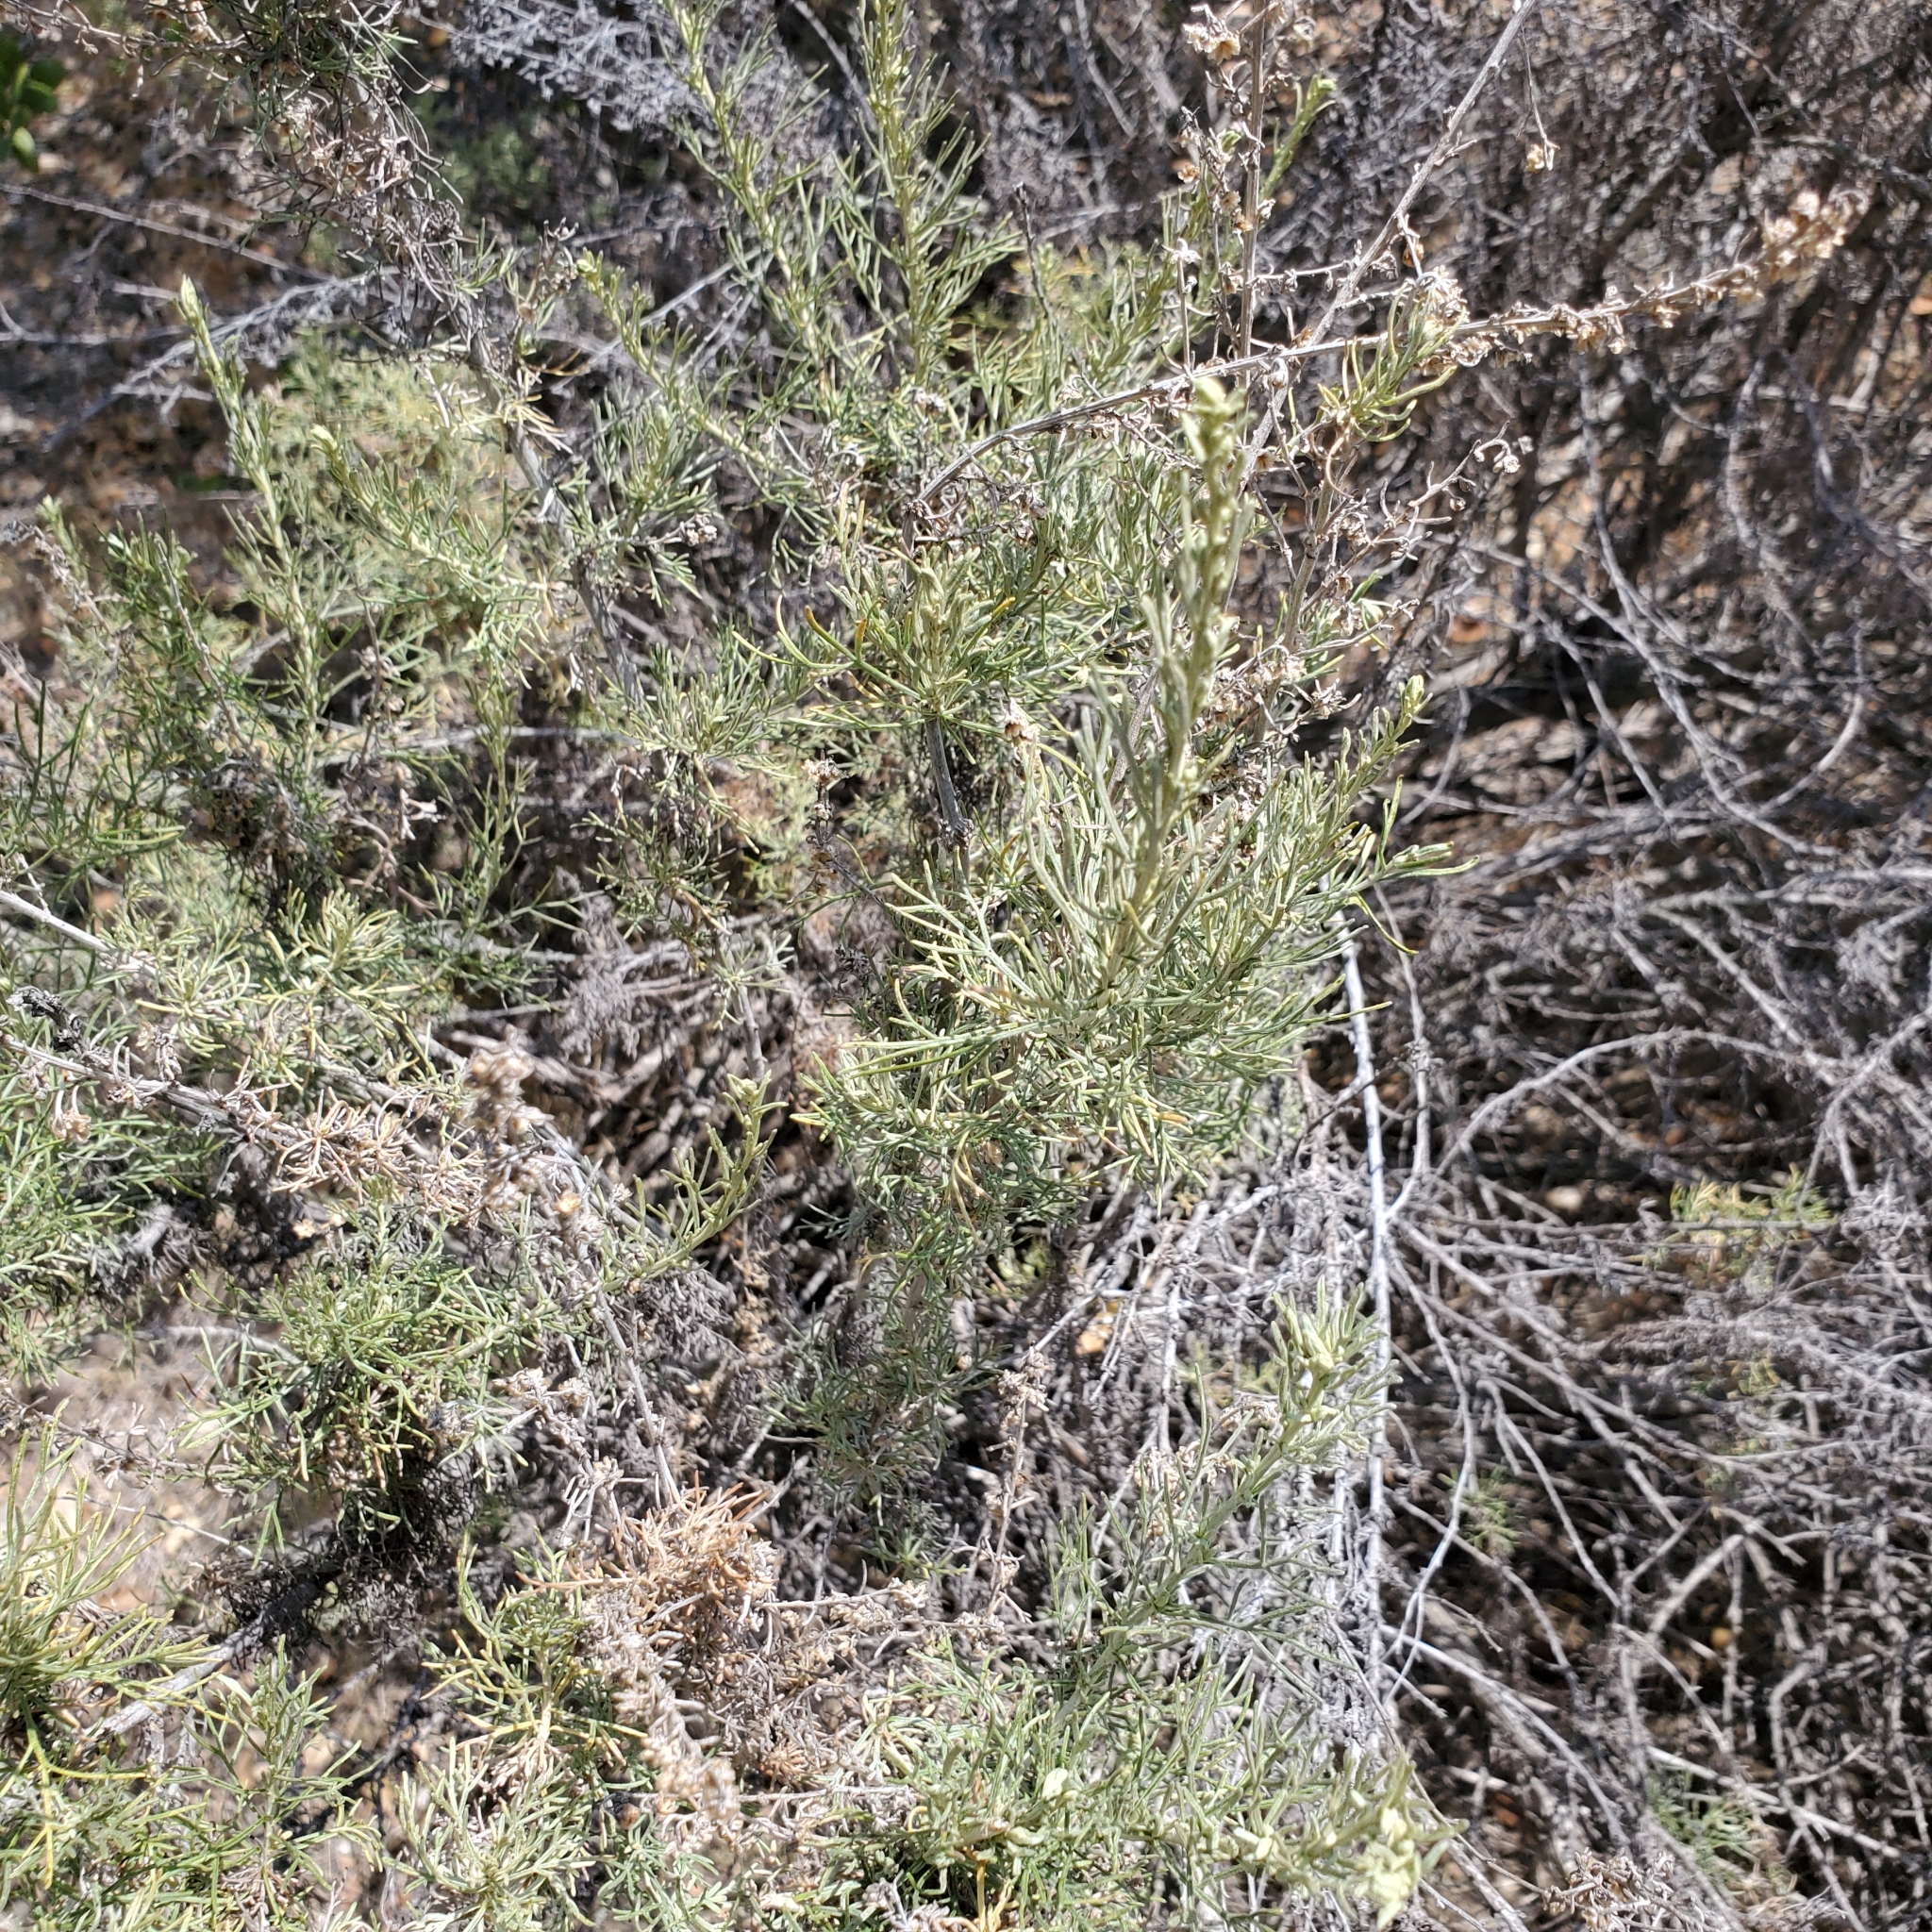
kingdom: Plantae
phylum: Tracheophyta
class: Magnoliopsida
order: Asterales
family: Asteraceae
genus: Artemisia
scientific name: Artemisia californica
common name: California sagebrush
